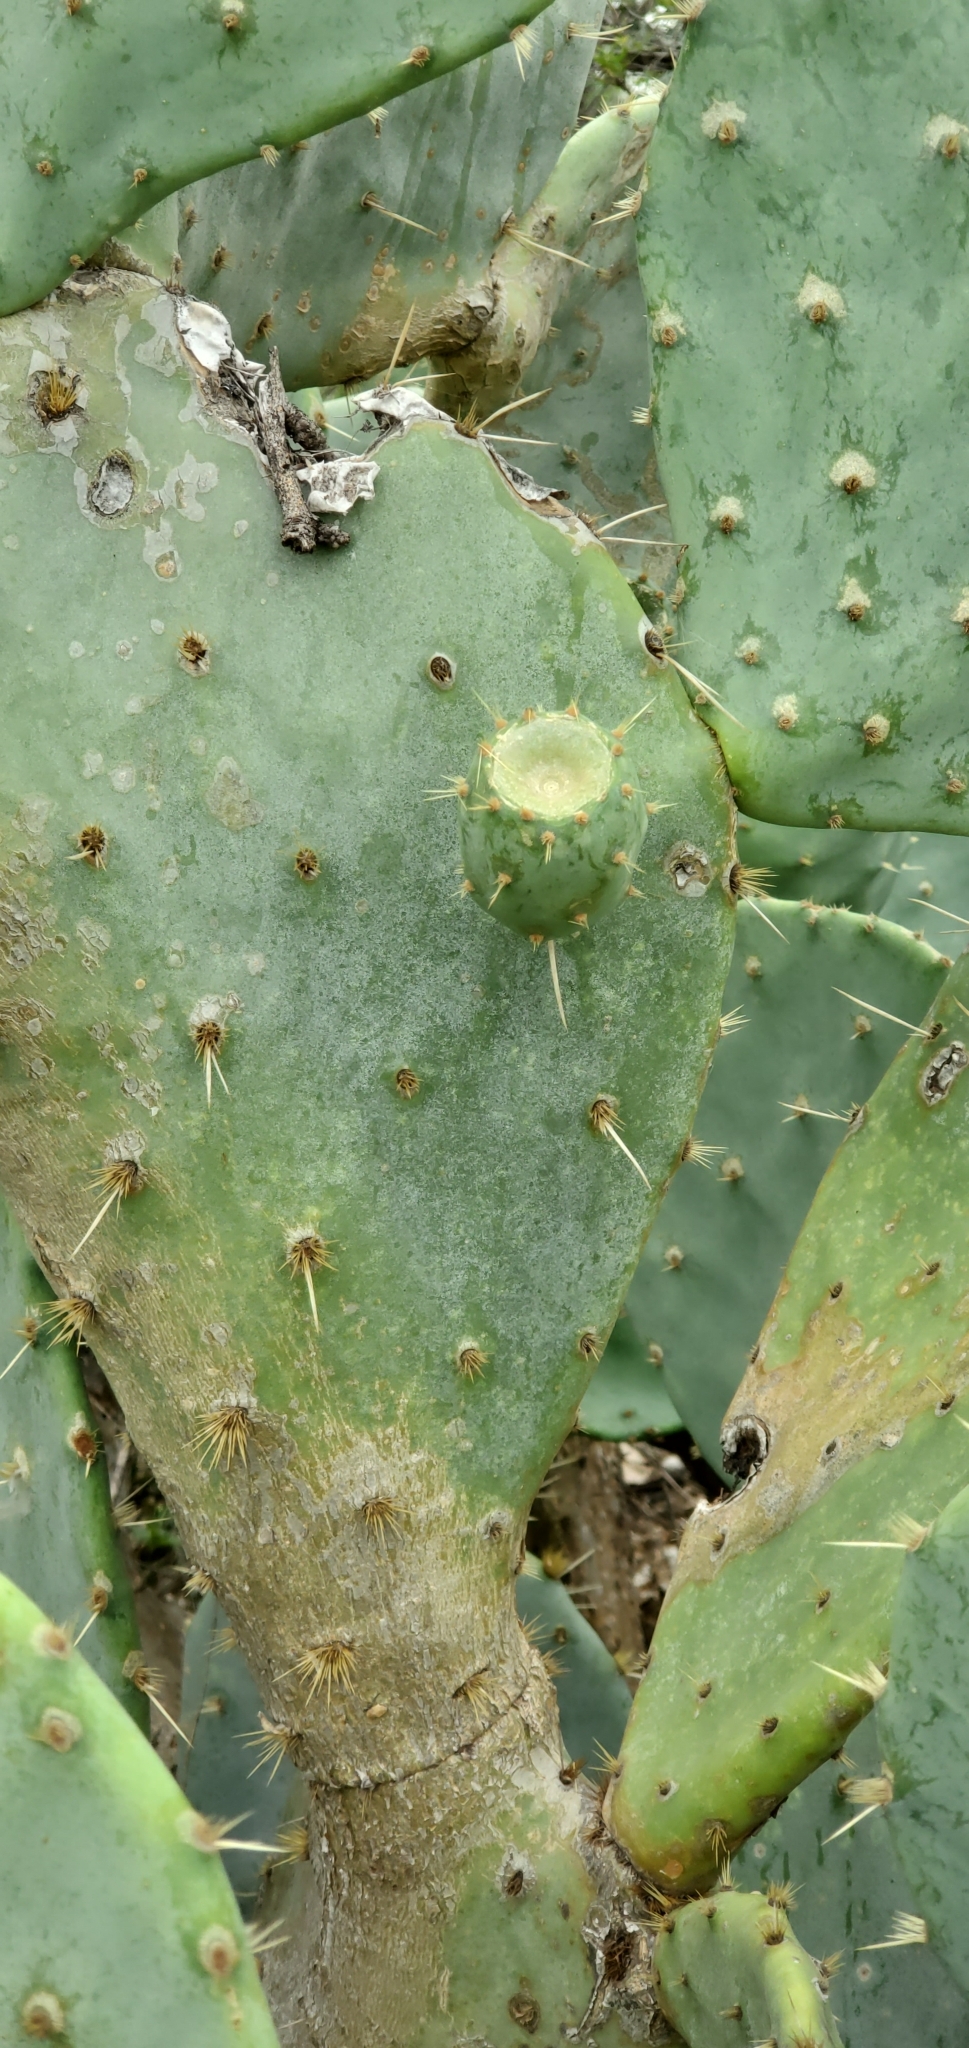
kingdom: Plantae
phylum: Tracheophyta
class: Magnoliopsida
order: Caryophyllales
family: Cactaceae
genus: Opuntia
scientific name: Opuntia engelmannii
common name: Cactus-apple
